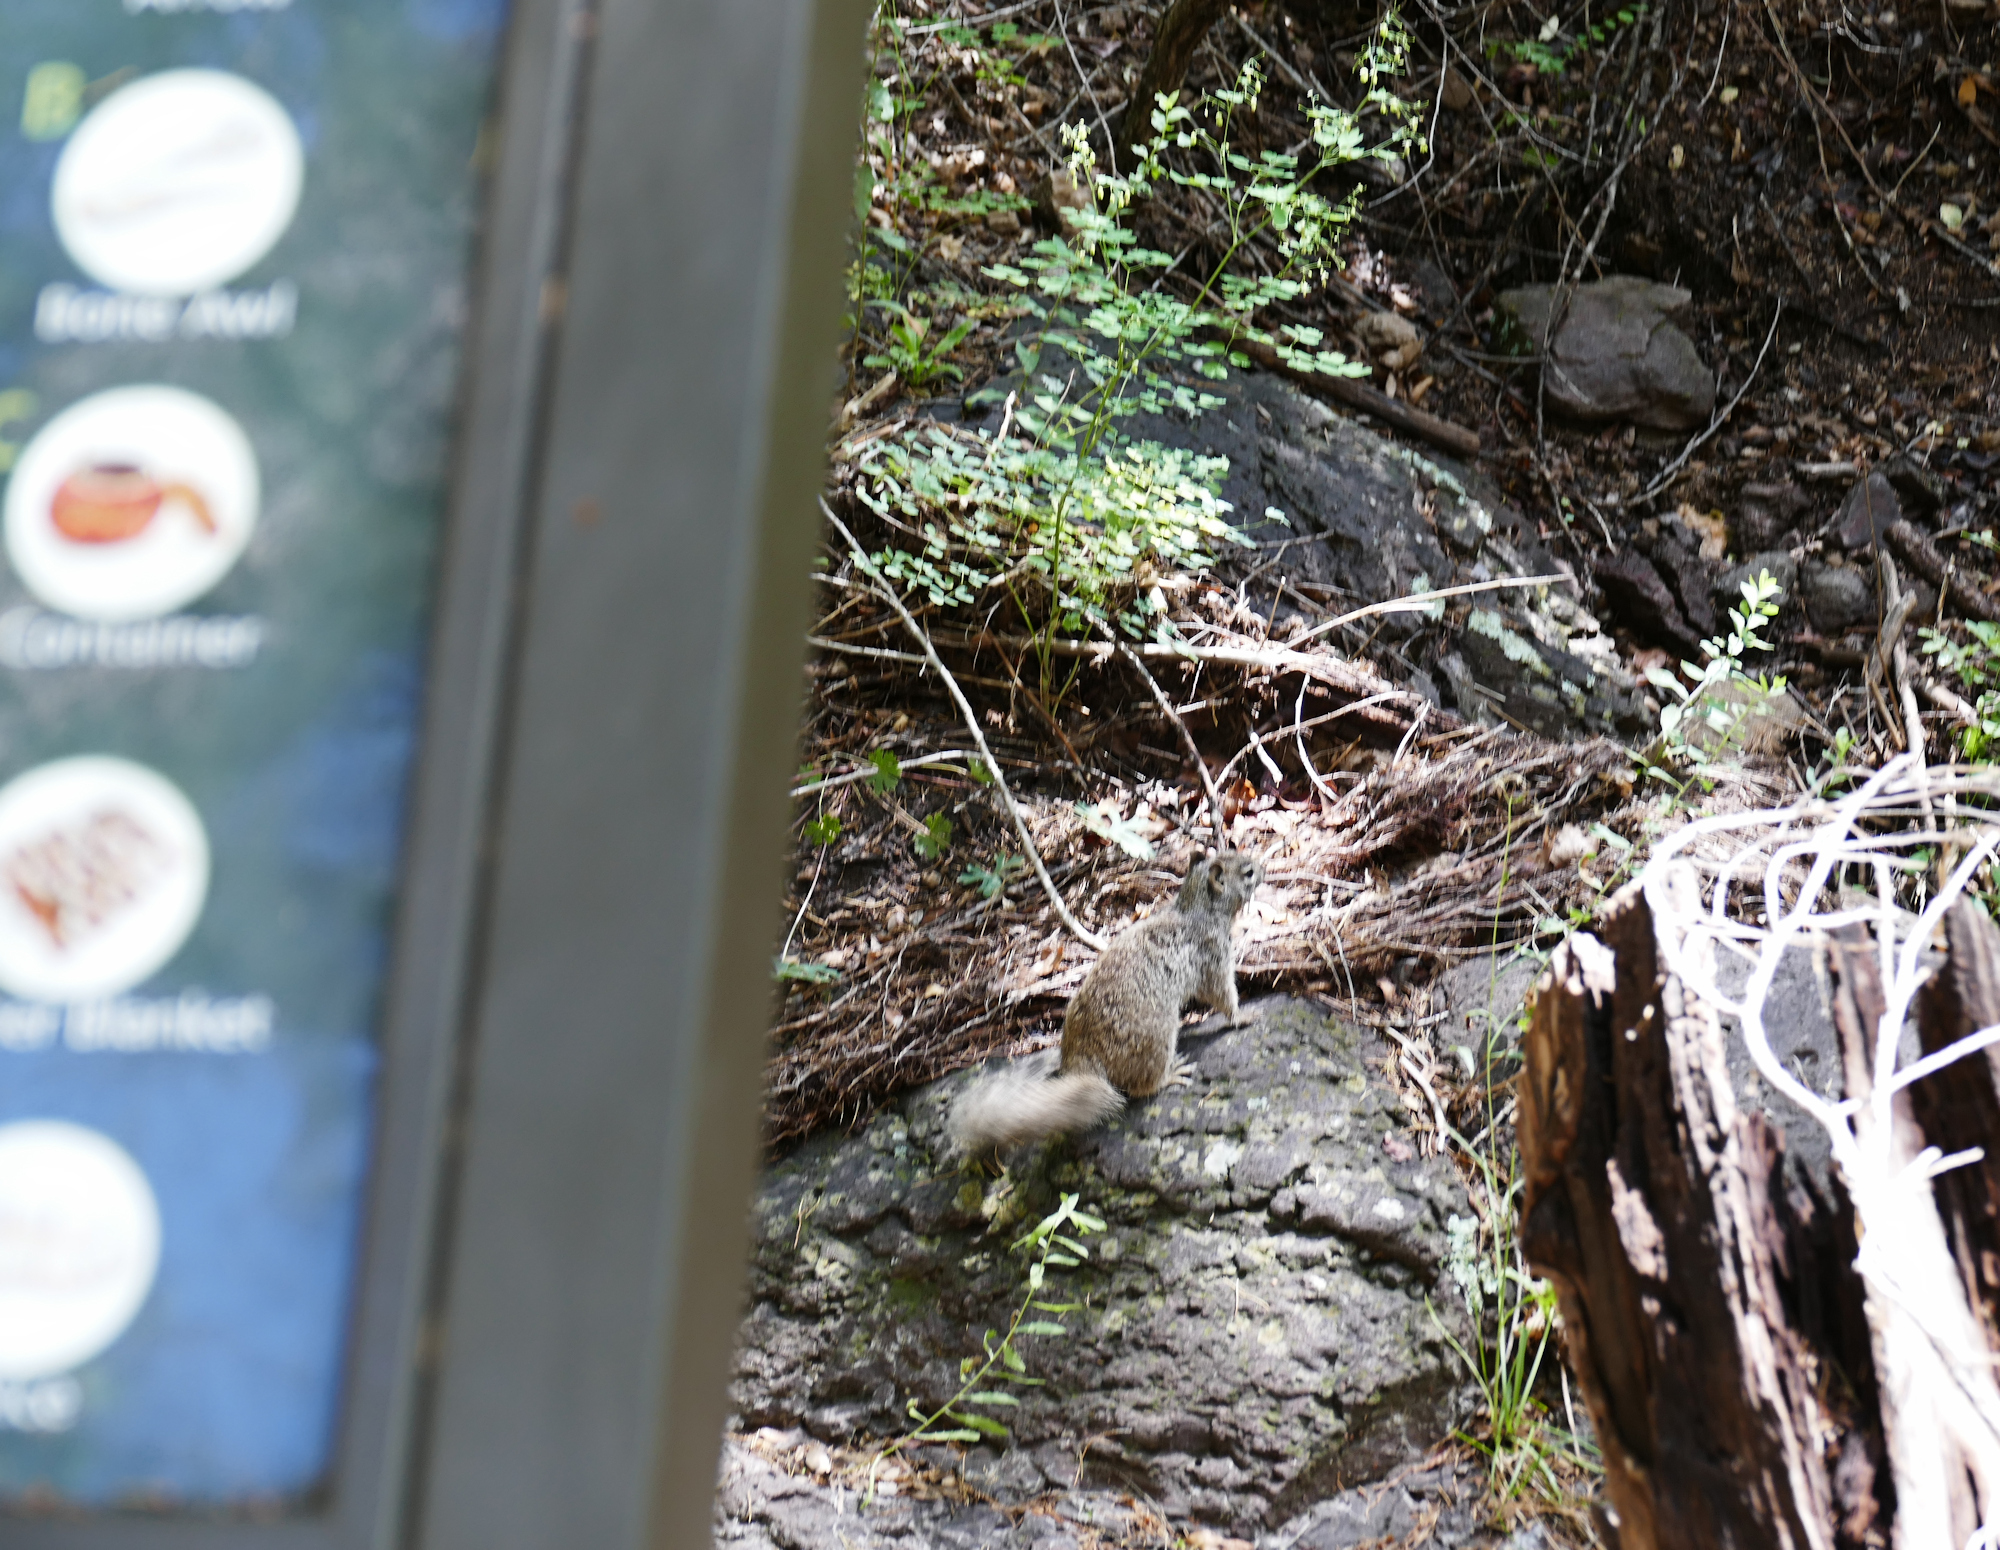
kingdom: Animalia
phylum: Chordata
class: Mammalia
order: Rodentia
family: Sciuridae
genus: Otospermophilus
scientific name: Otospermophilus variegatus
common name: Rock squirrel
